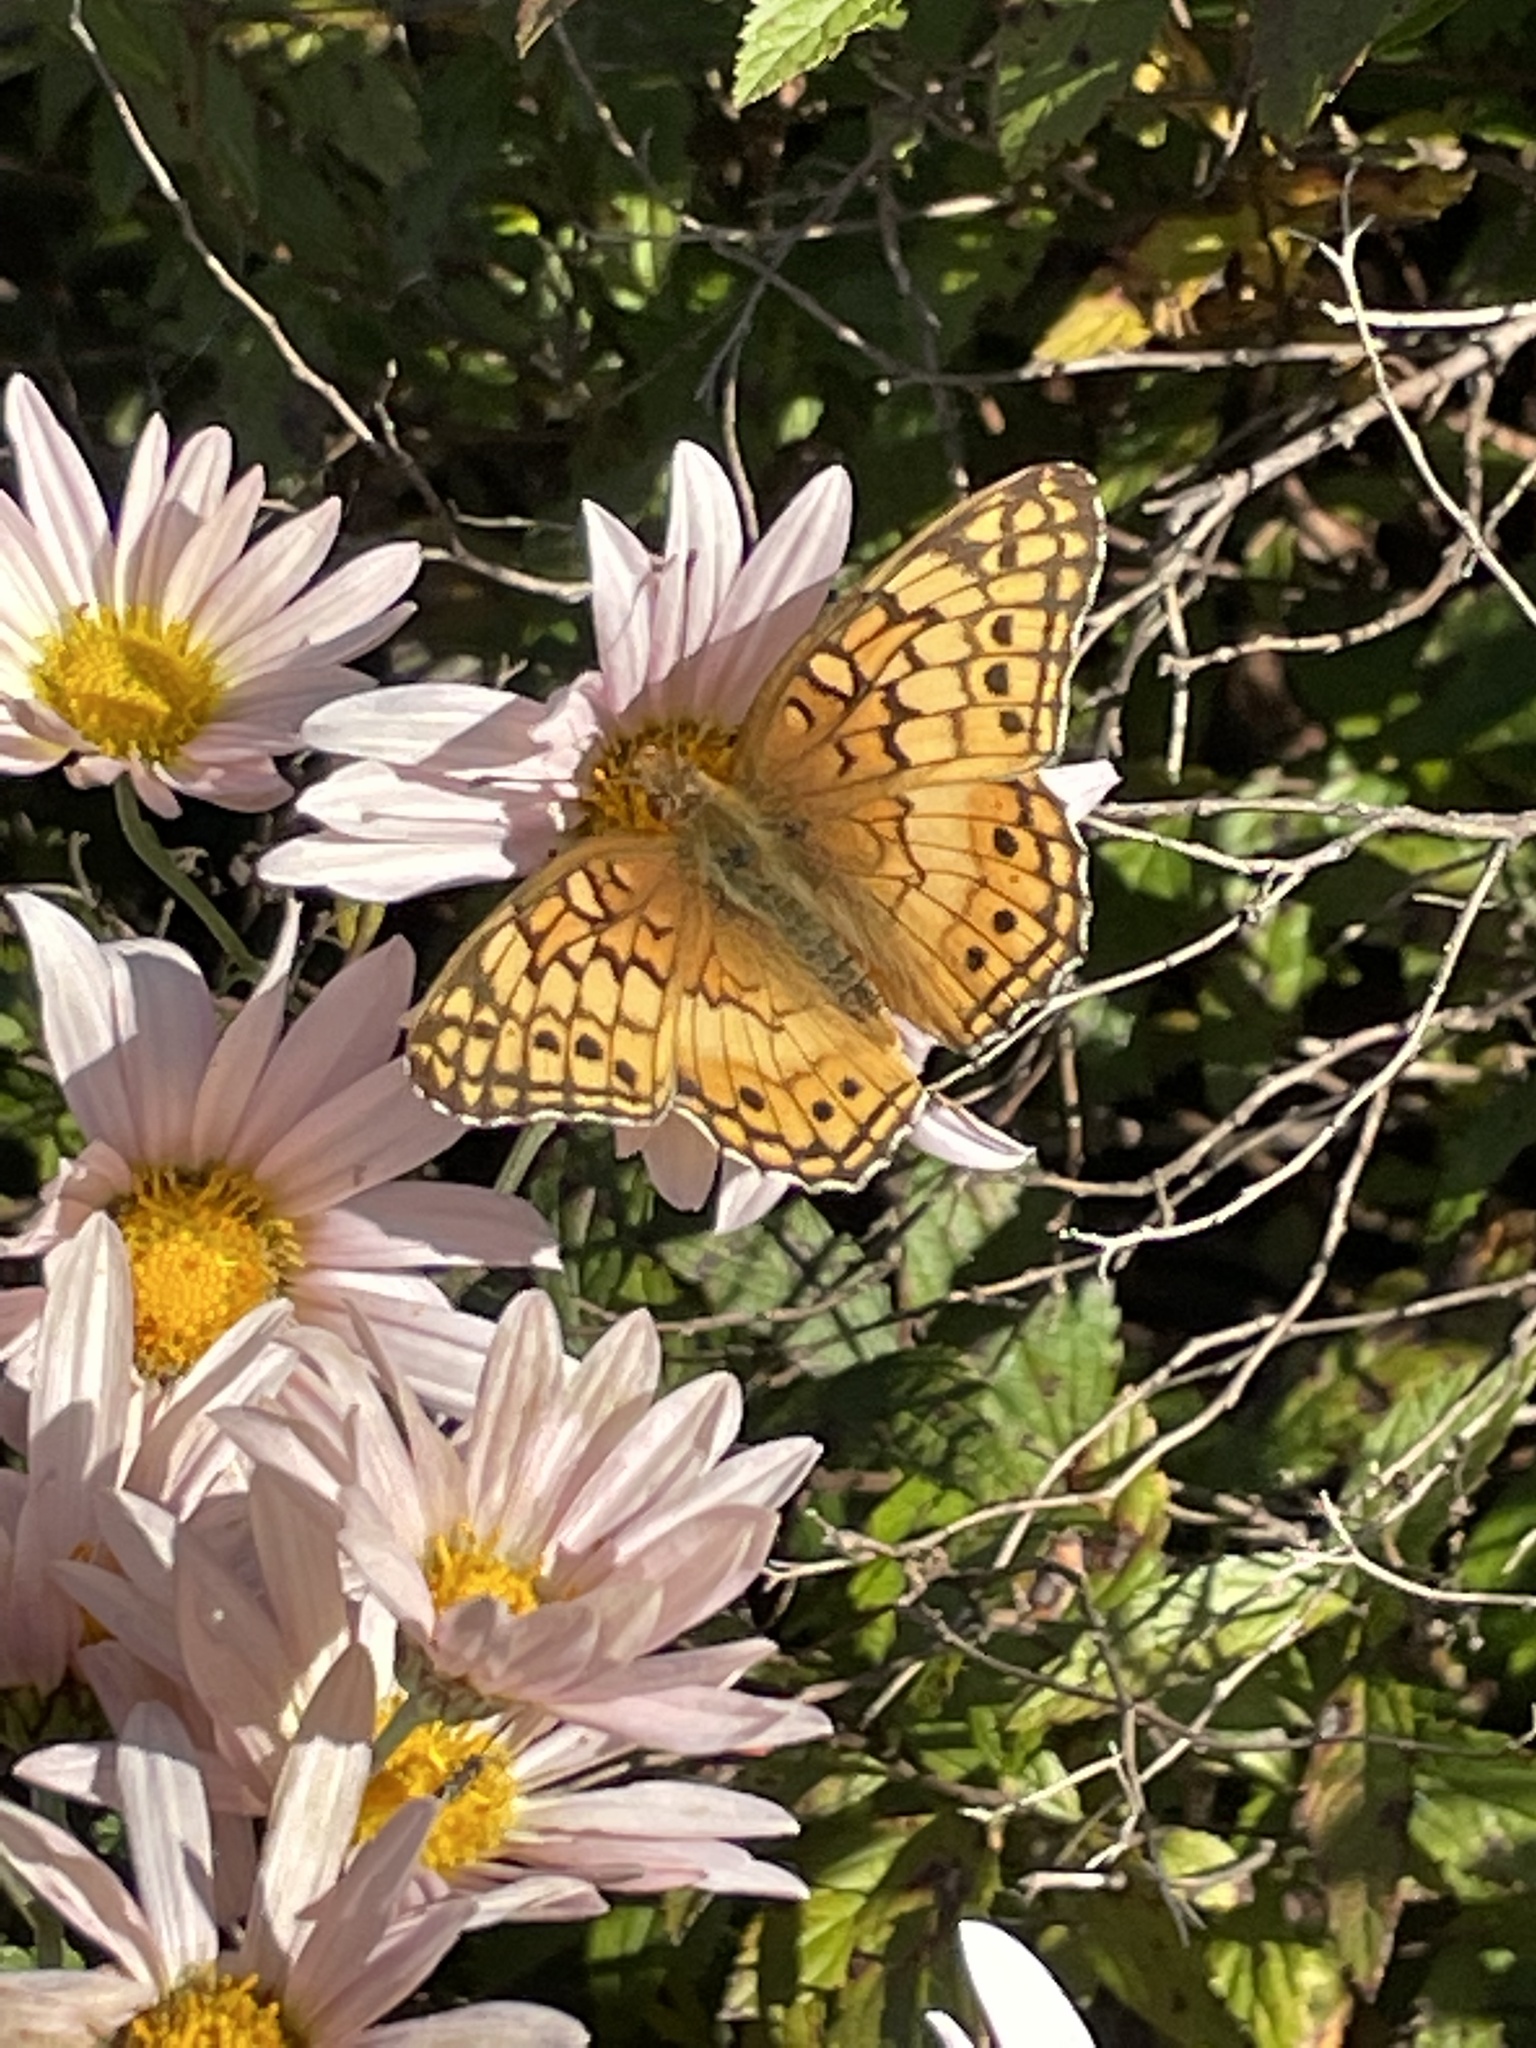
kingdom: Animalia
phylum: Arthropoda
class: Insecta
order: Lepidoptera
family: Nymphalidae
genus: Euptoieta
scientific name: Euptoieta claudia
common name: Variegated fritillary
